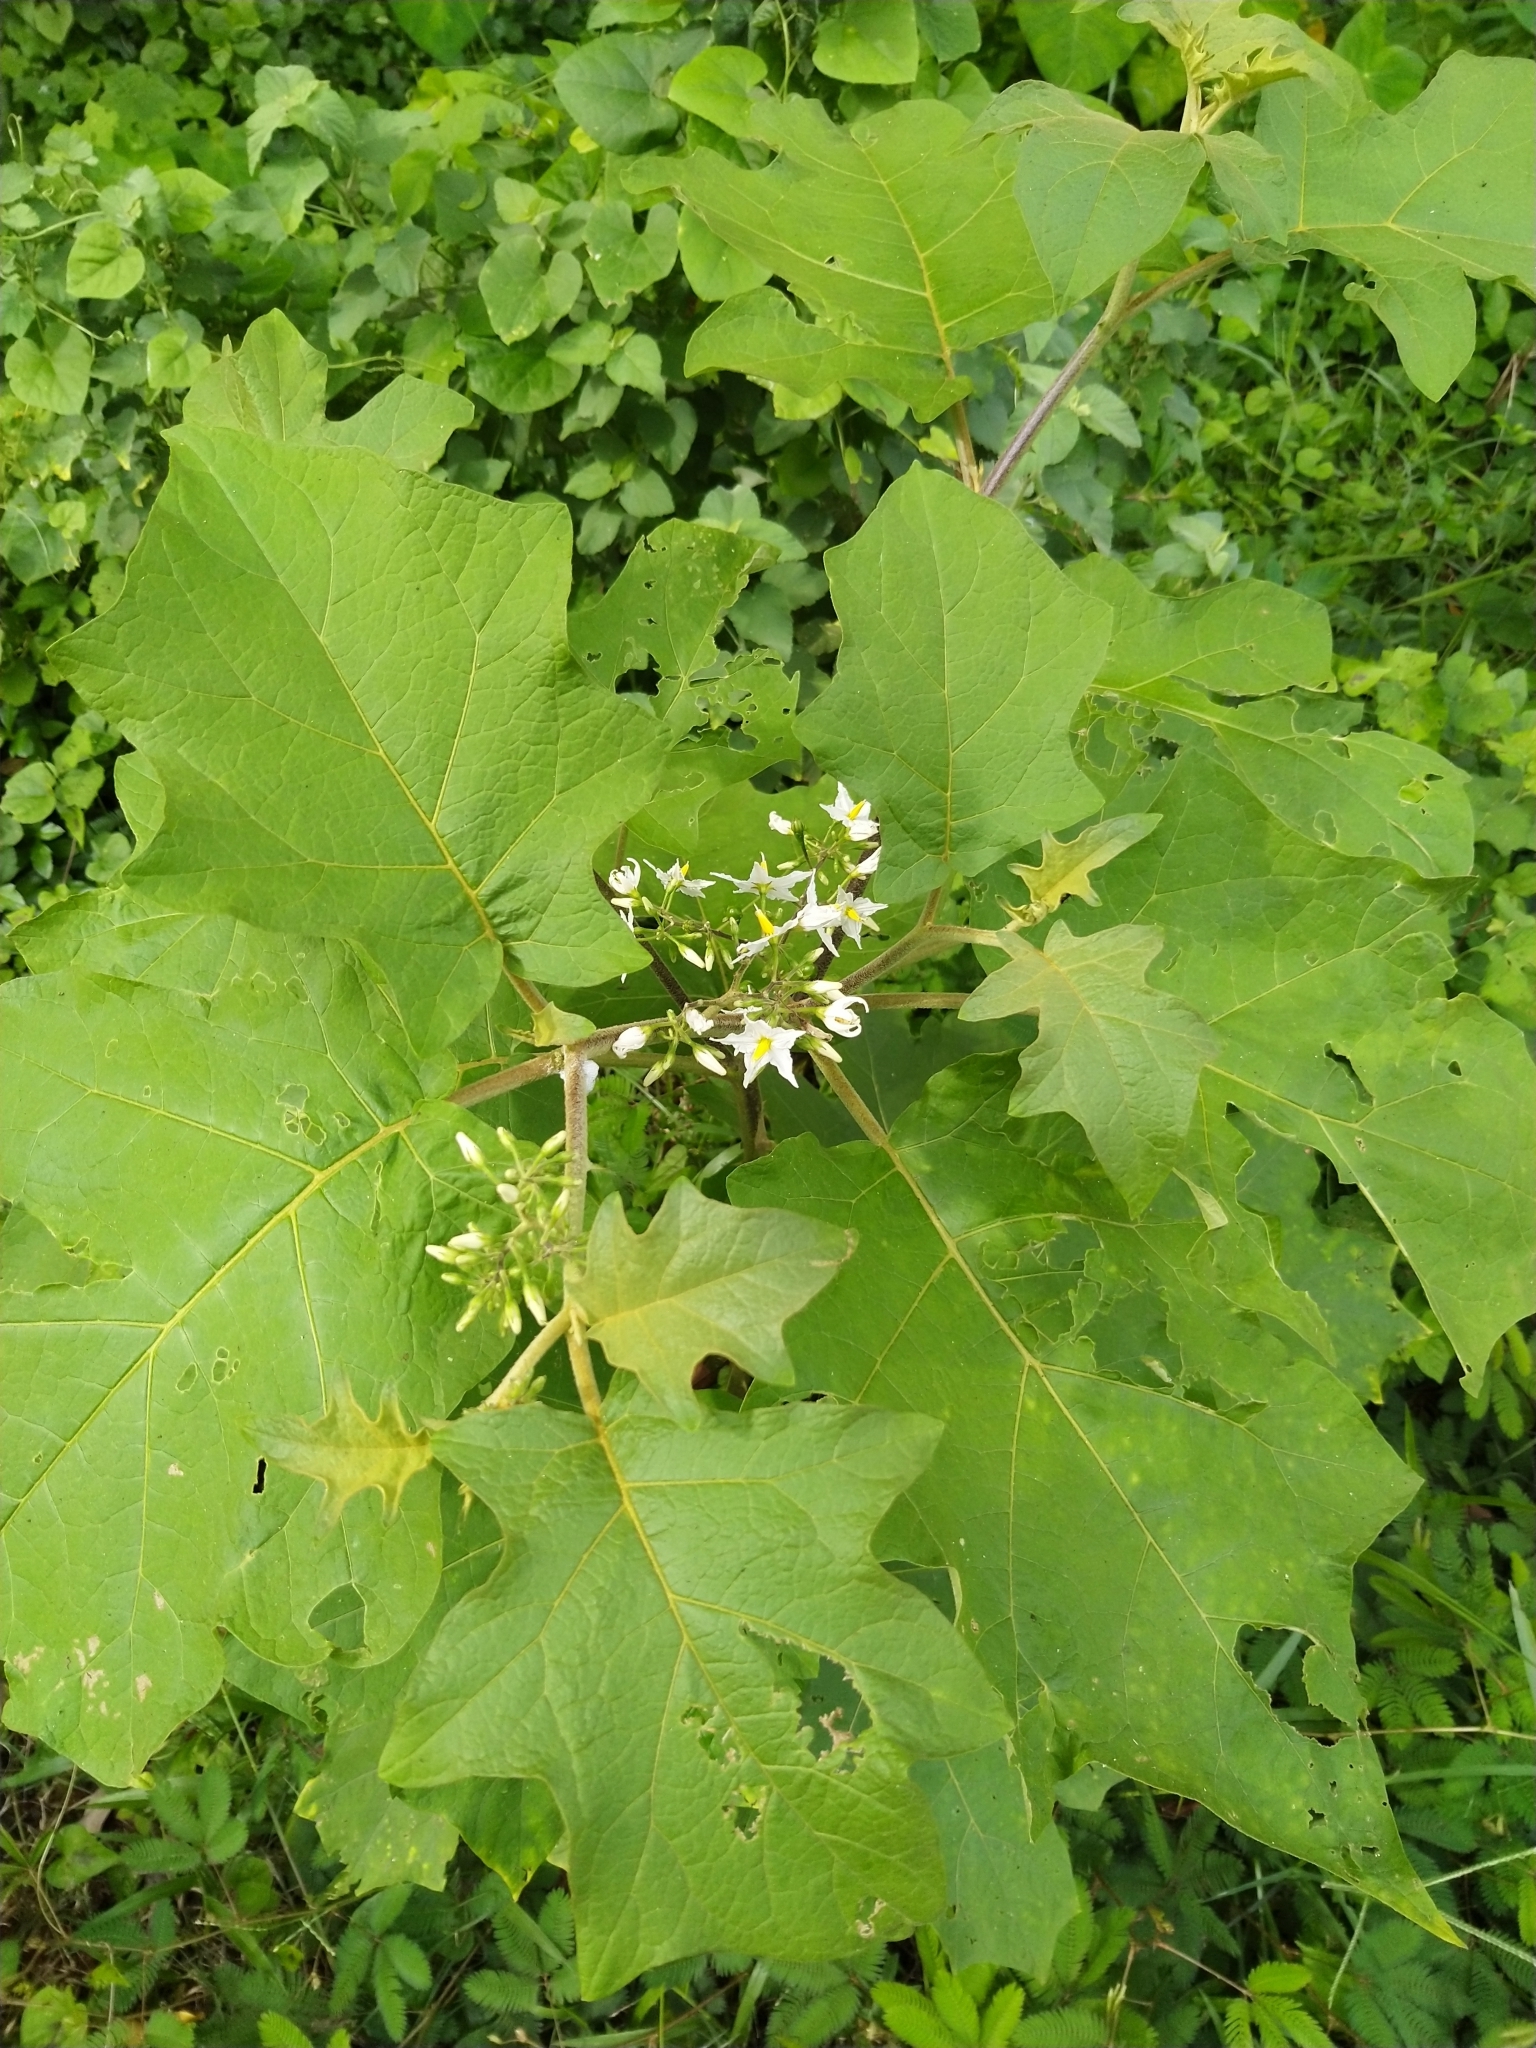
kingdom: Plantae
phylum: Tracheophyta
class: Magnoliopsida
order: Solanales
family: Solanaceae
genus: Solanum
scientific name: Solanum torvum
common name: Turkey berry
